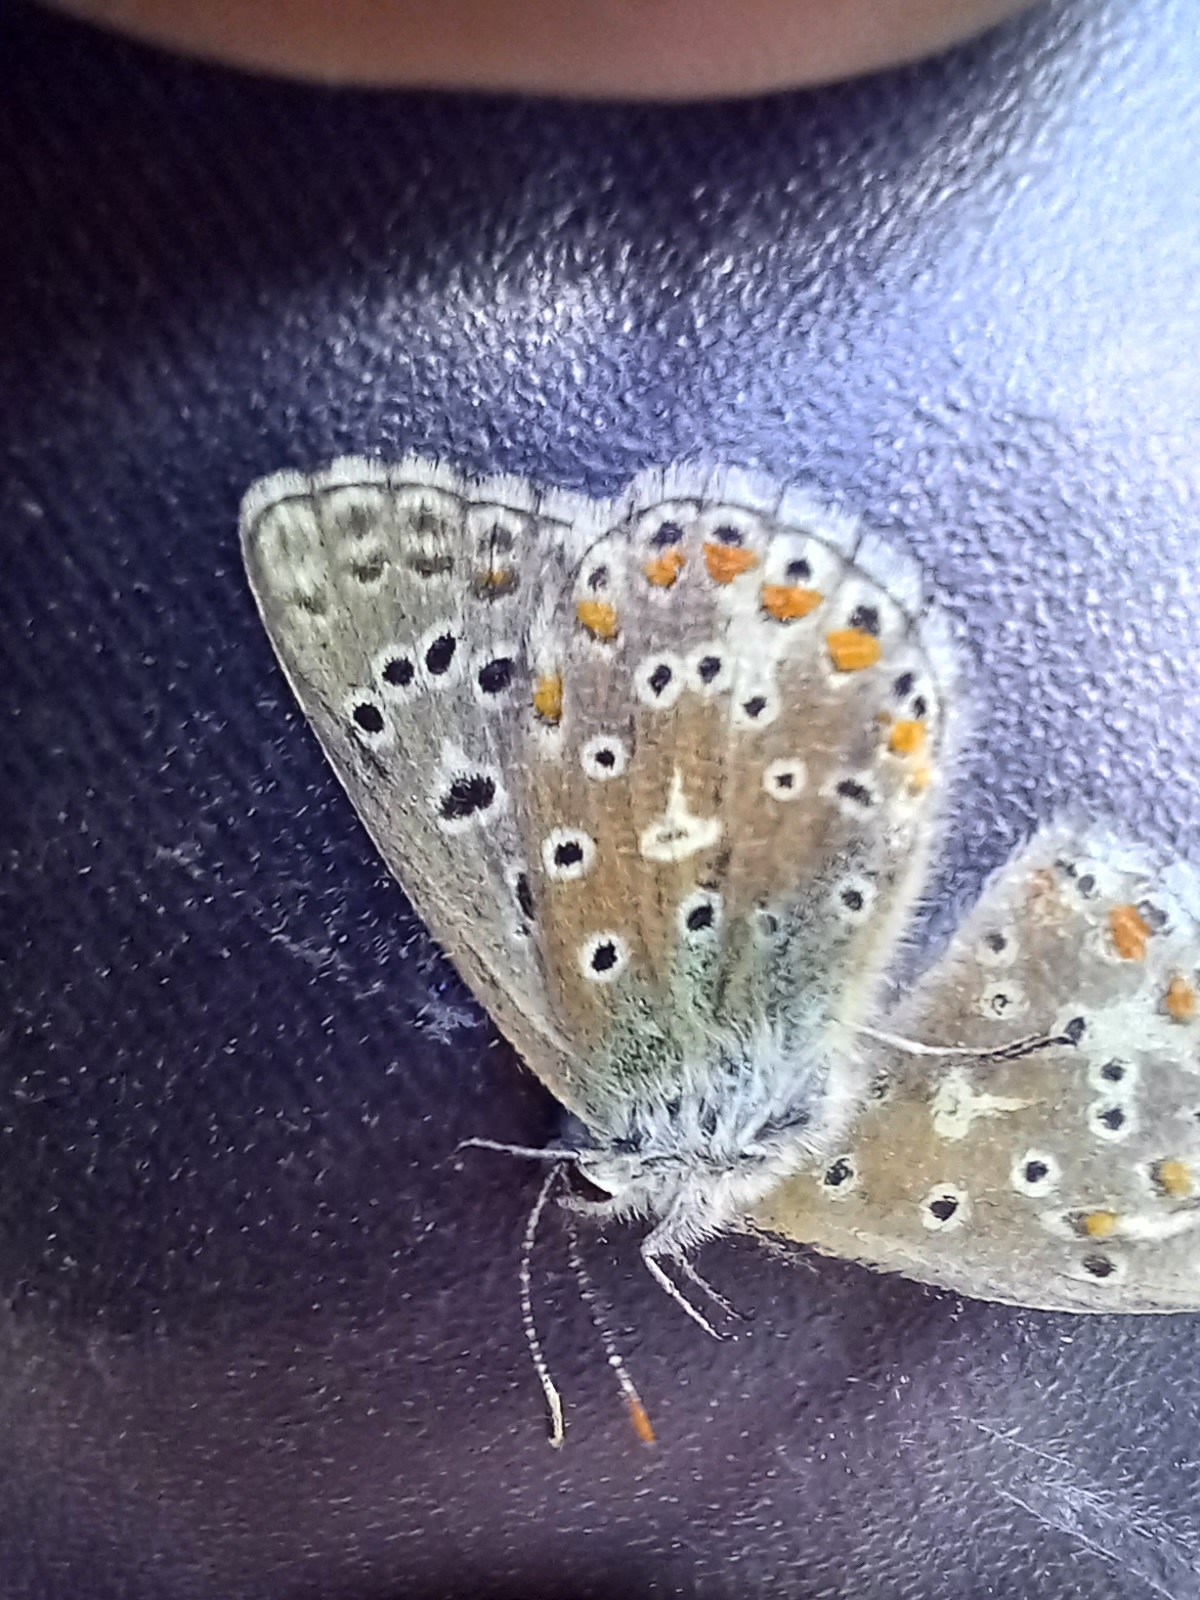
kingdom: Animalia
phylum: Arthropoda
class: Insecta
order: Lepidoptera
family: Lycaenidae
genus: Lysandra
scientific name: Lysandra bellargus
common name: Adonis blue
